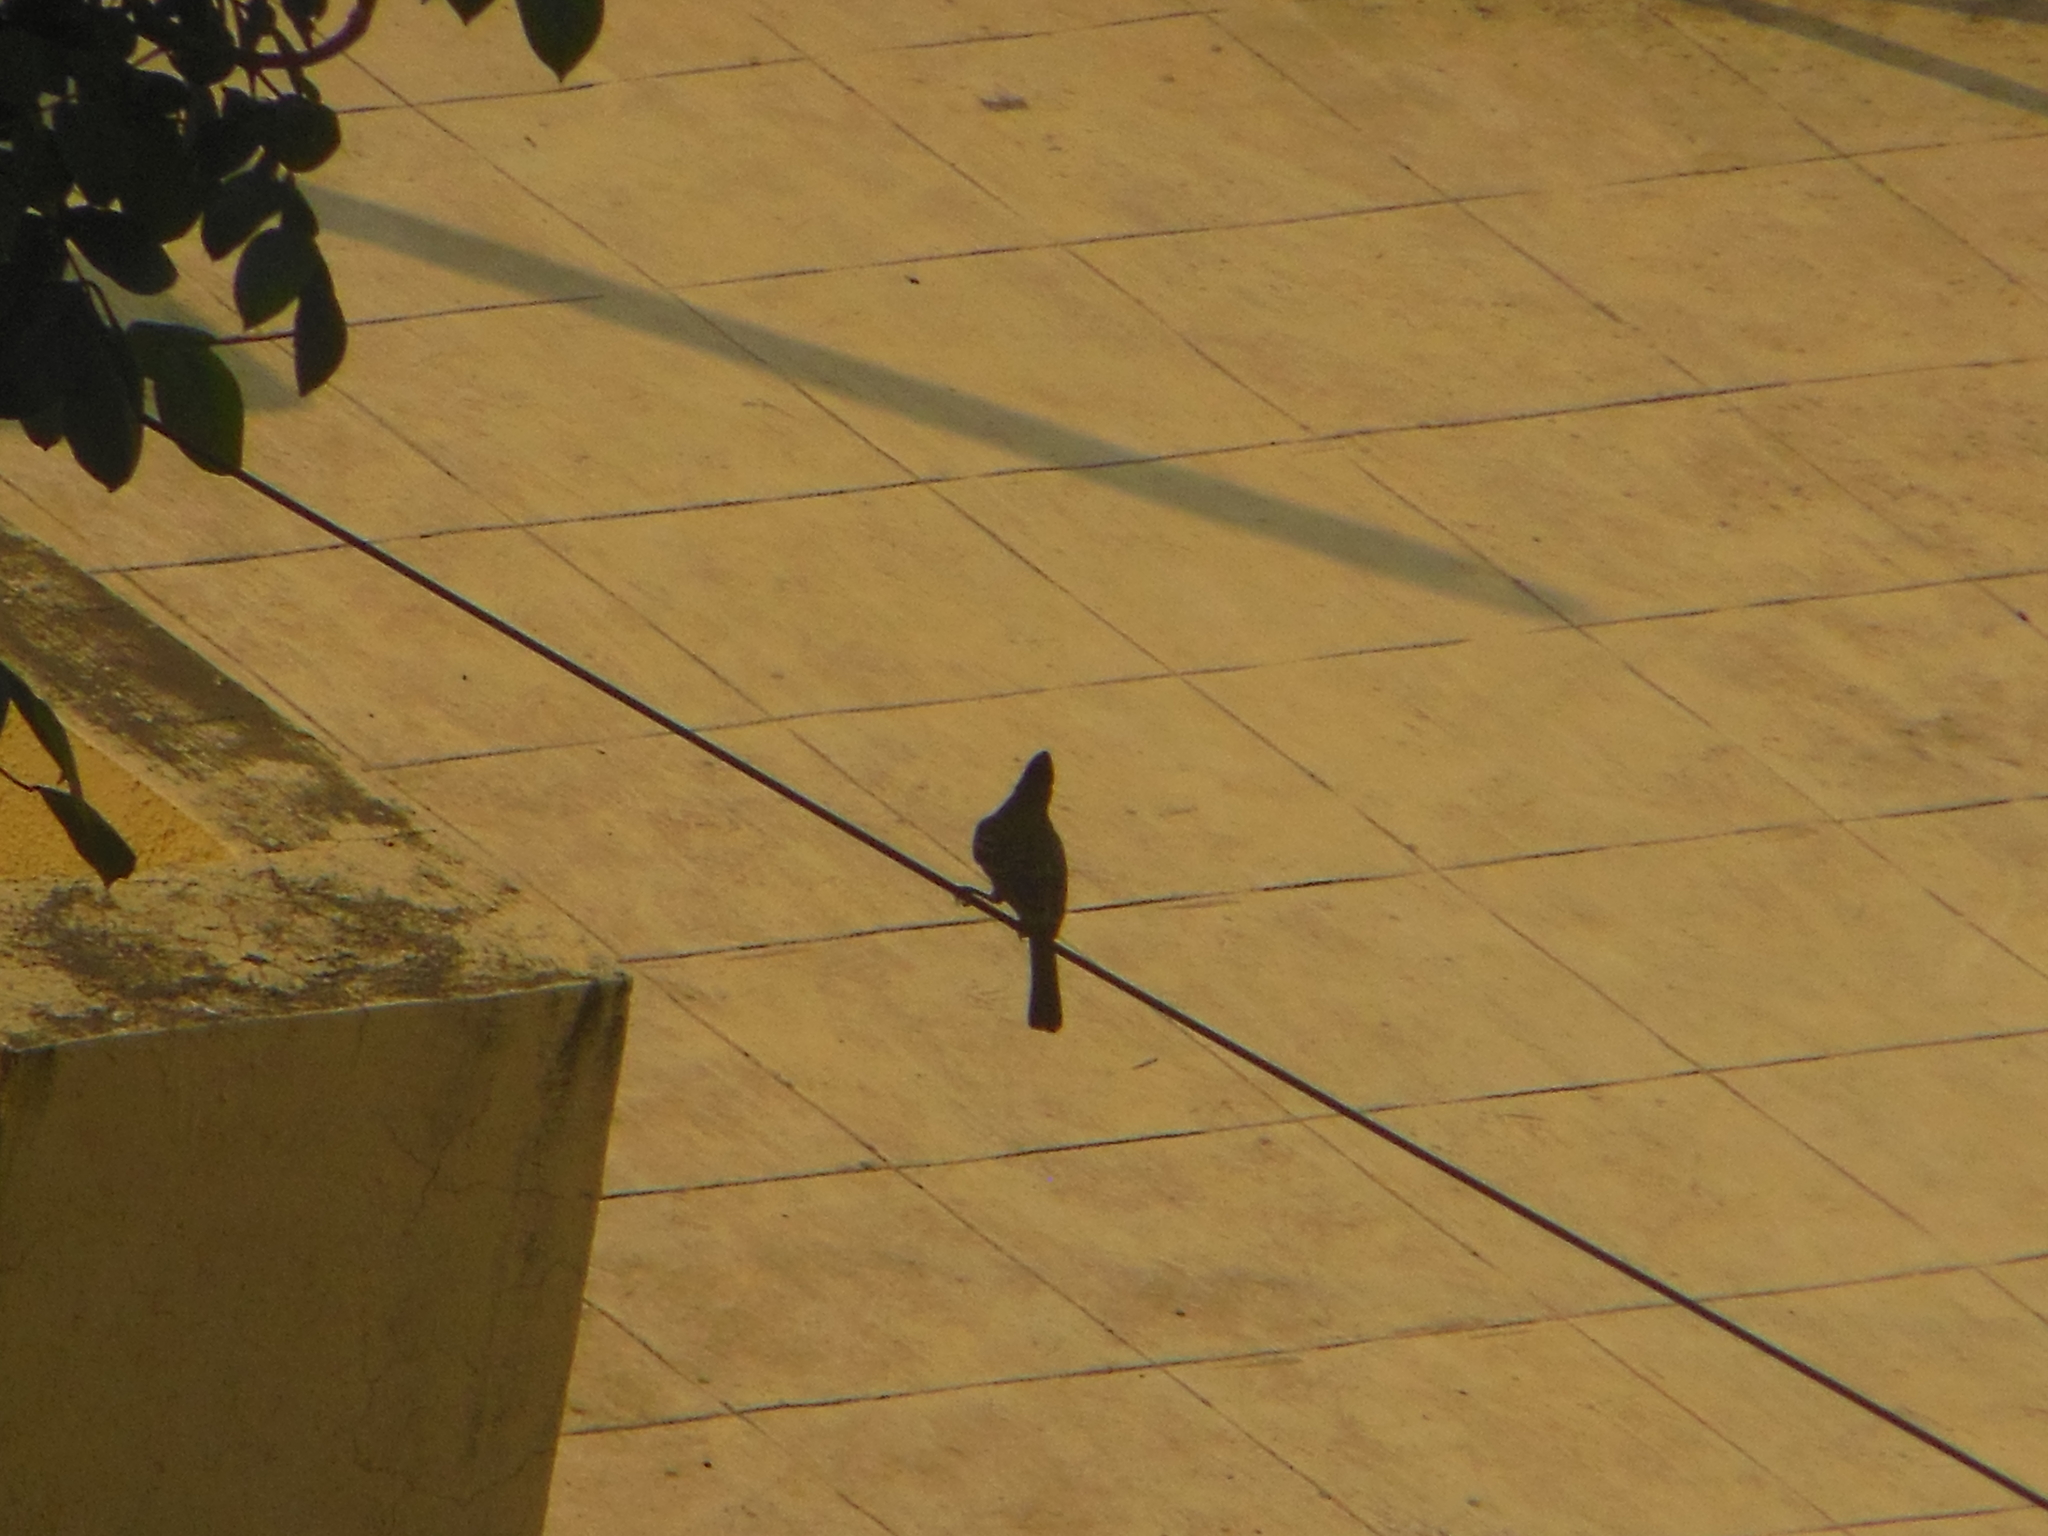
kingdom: Animalia
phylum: Chordata
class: Aves
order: Passeriformes
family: Pycnonotidae
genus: Pycnonotus
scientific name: Pycnonotus cafer
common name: Red-vented bulbul
